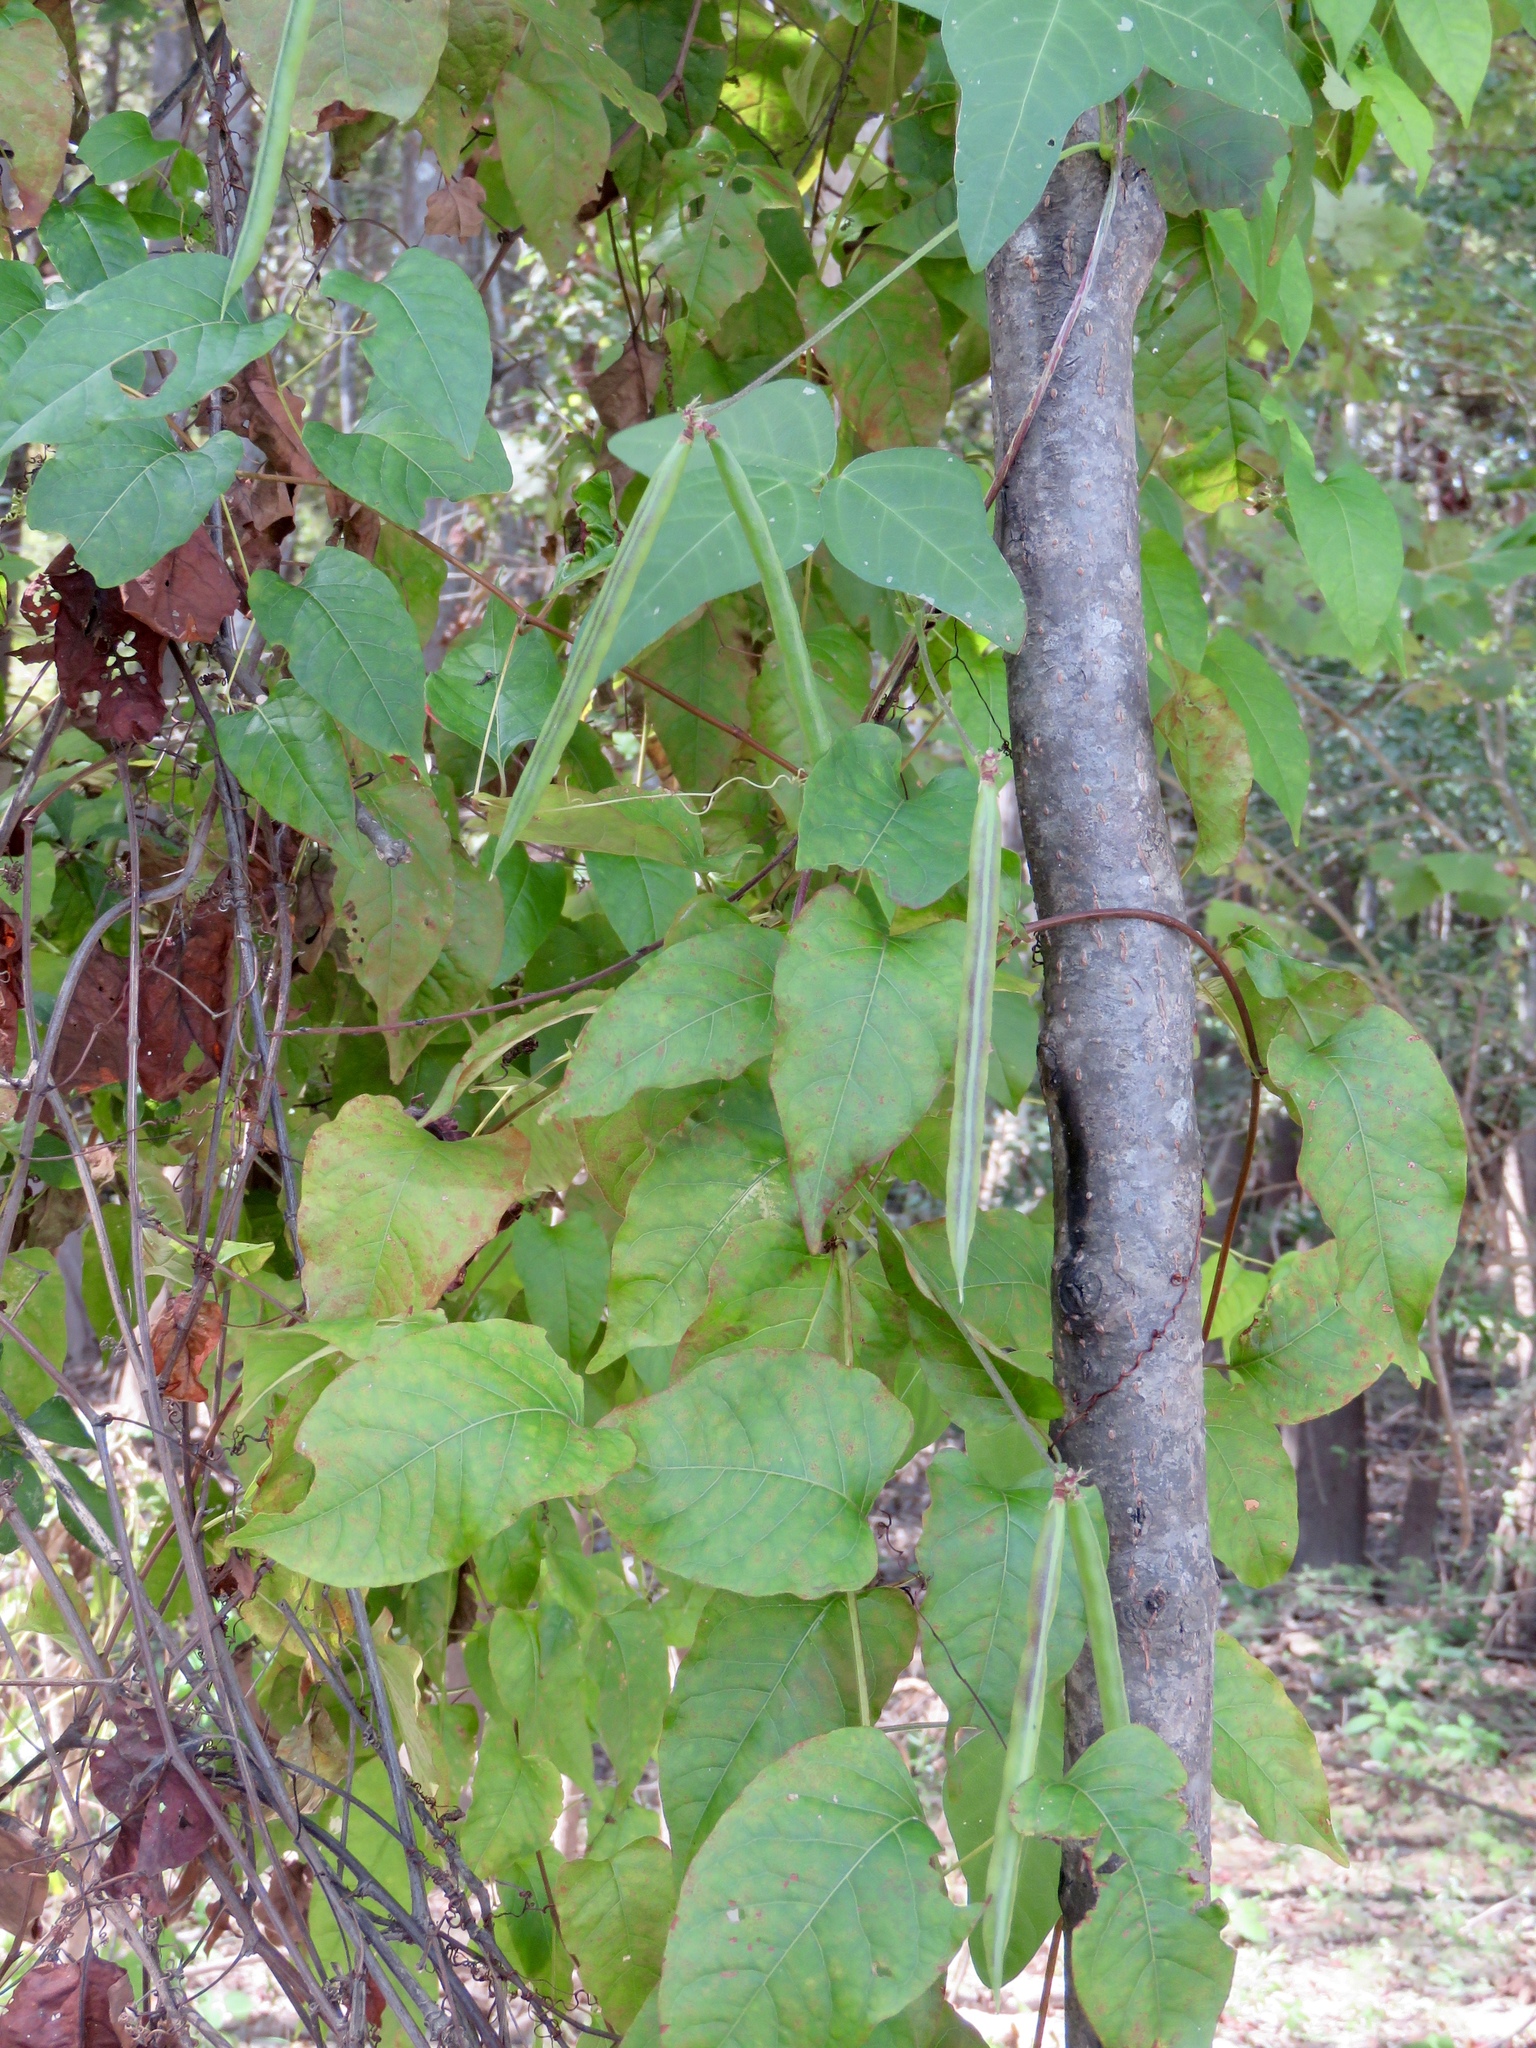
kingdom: Plantae
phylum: Tracheophyta
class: Magnoliopsida
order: Fabales
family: Fabaceae
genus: Strophostyles
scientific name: Strophostyles helvola
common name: Trailing wild bean
